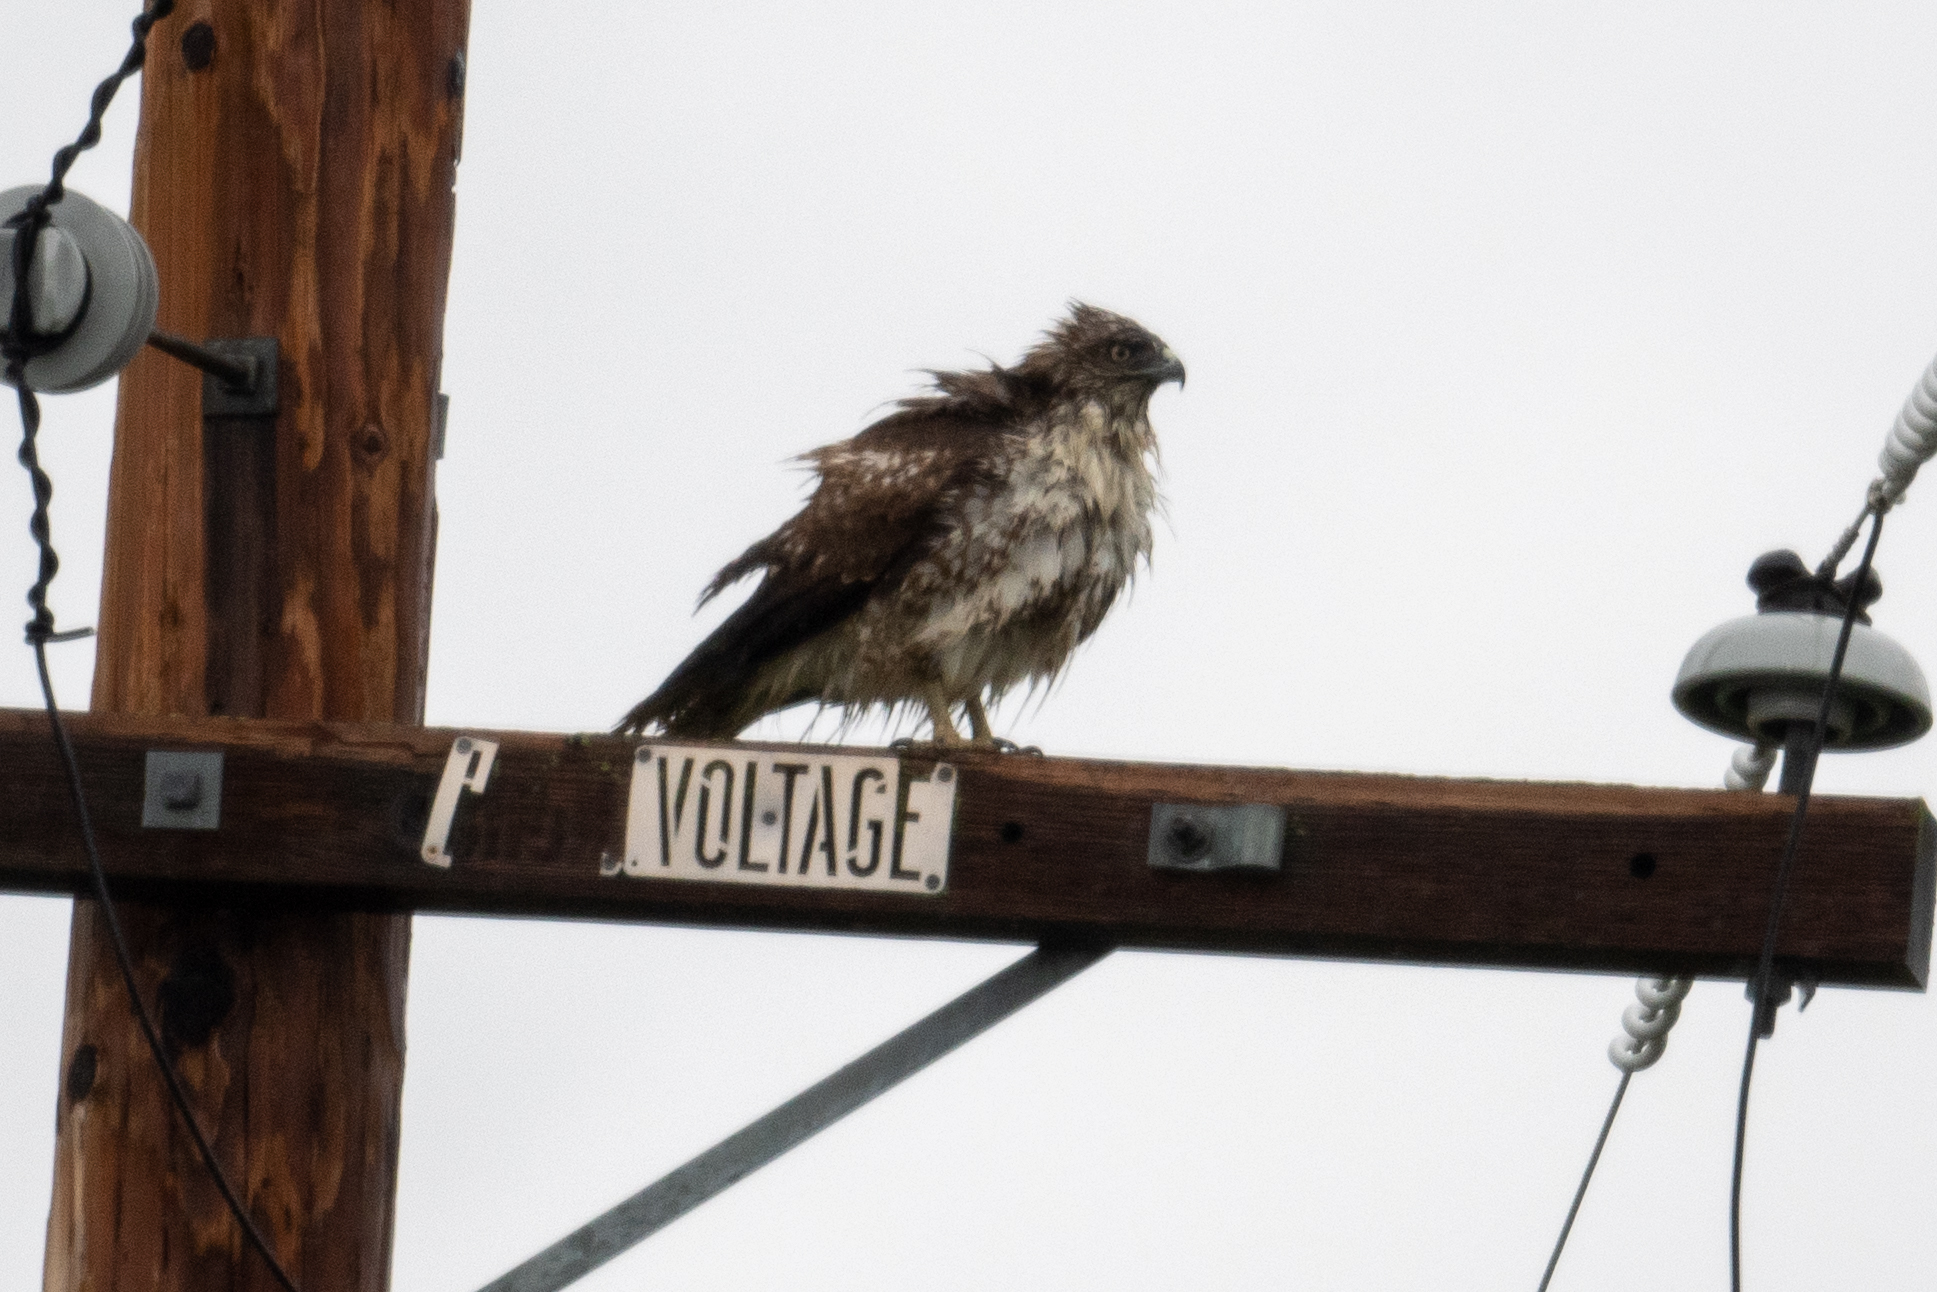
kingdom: Animalia
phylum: Chordata
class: Aves
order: Accipitriformes
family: Accipitridae
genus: Buteo
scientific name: Buteo jamaicensis
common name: Red-tailed hawk
